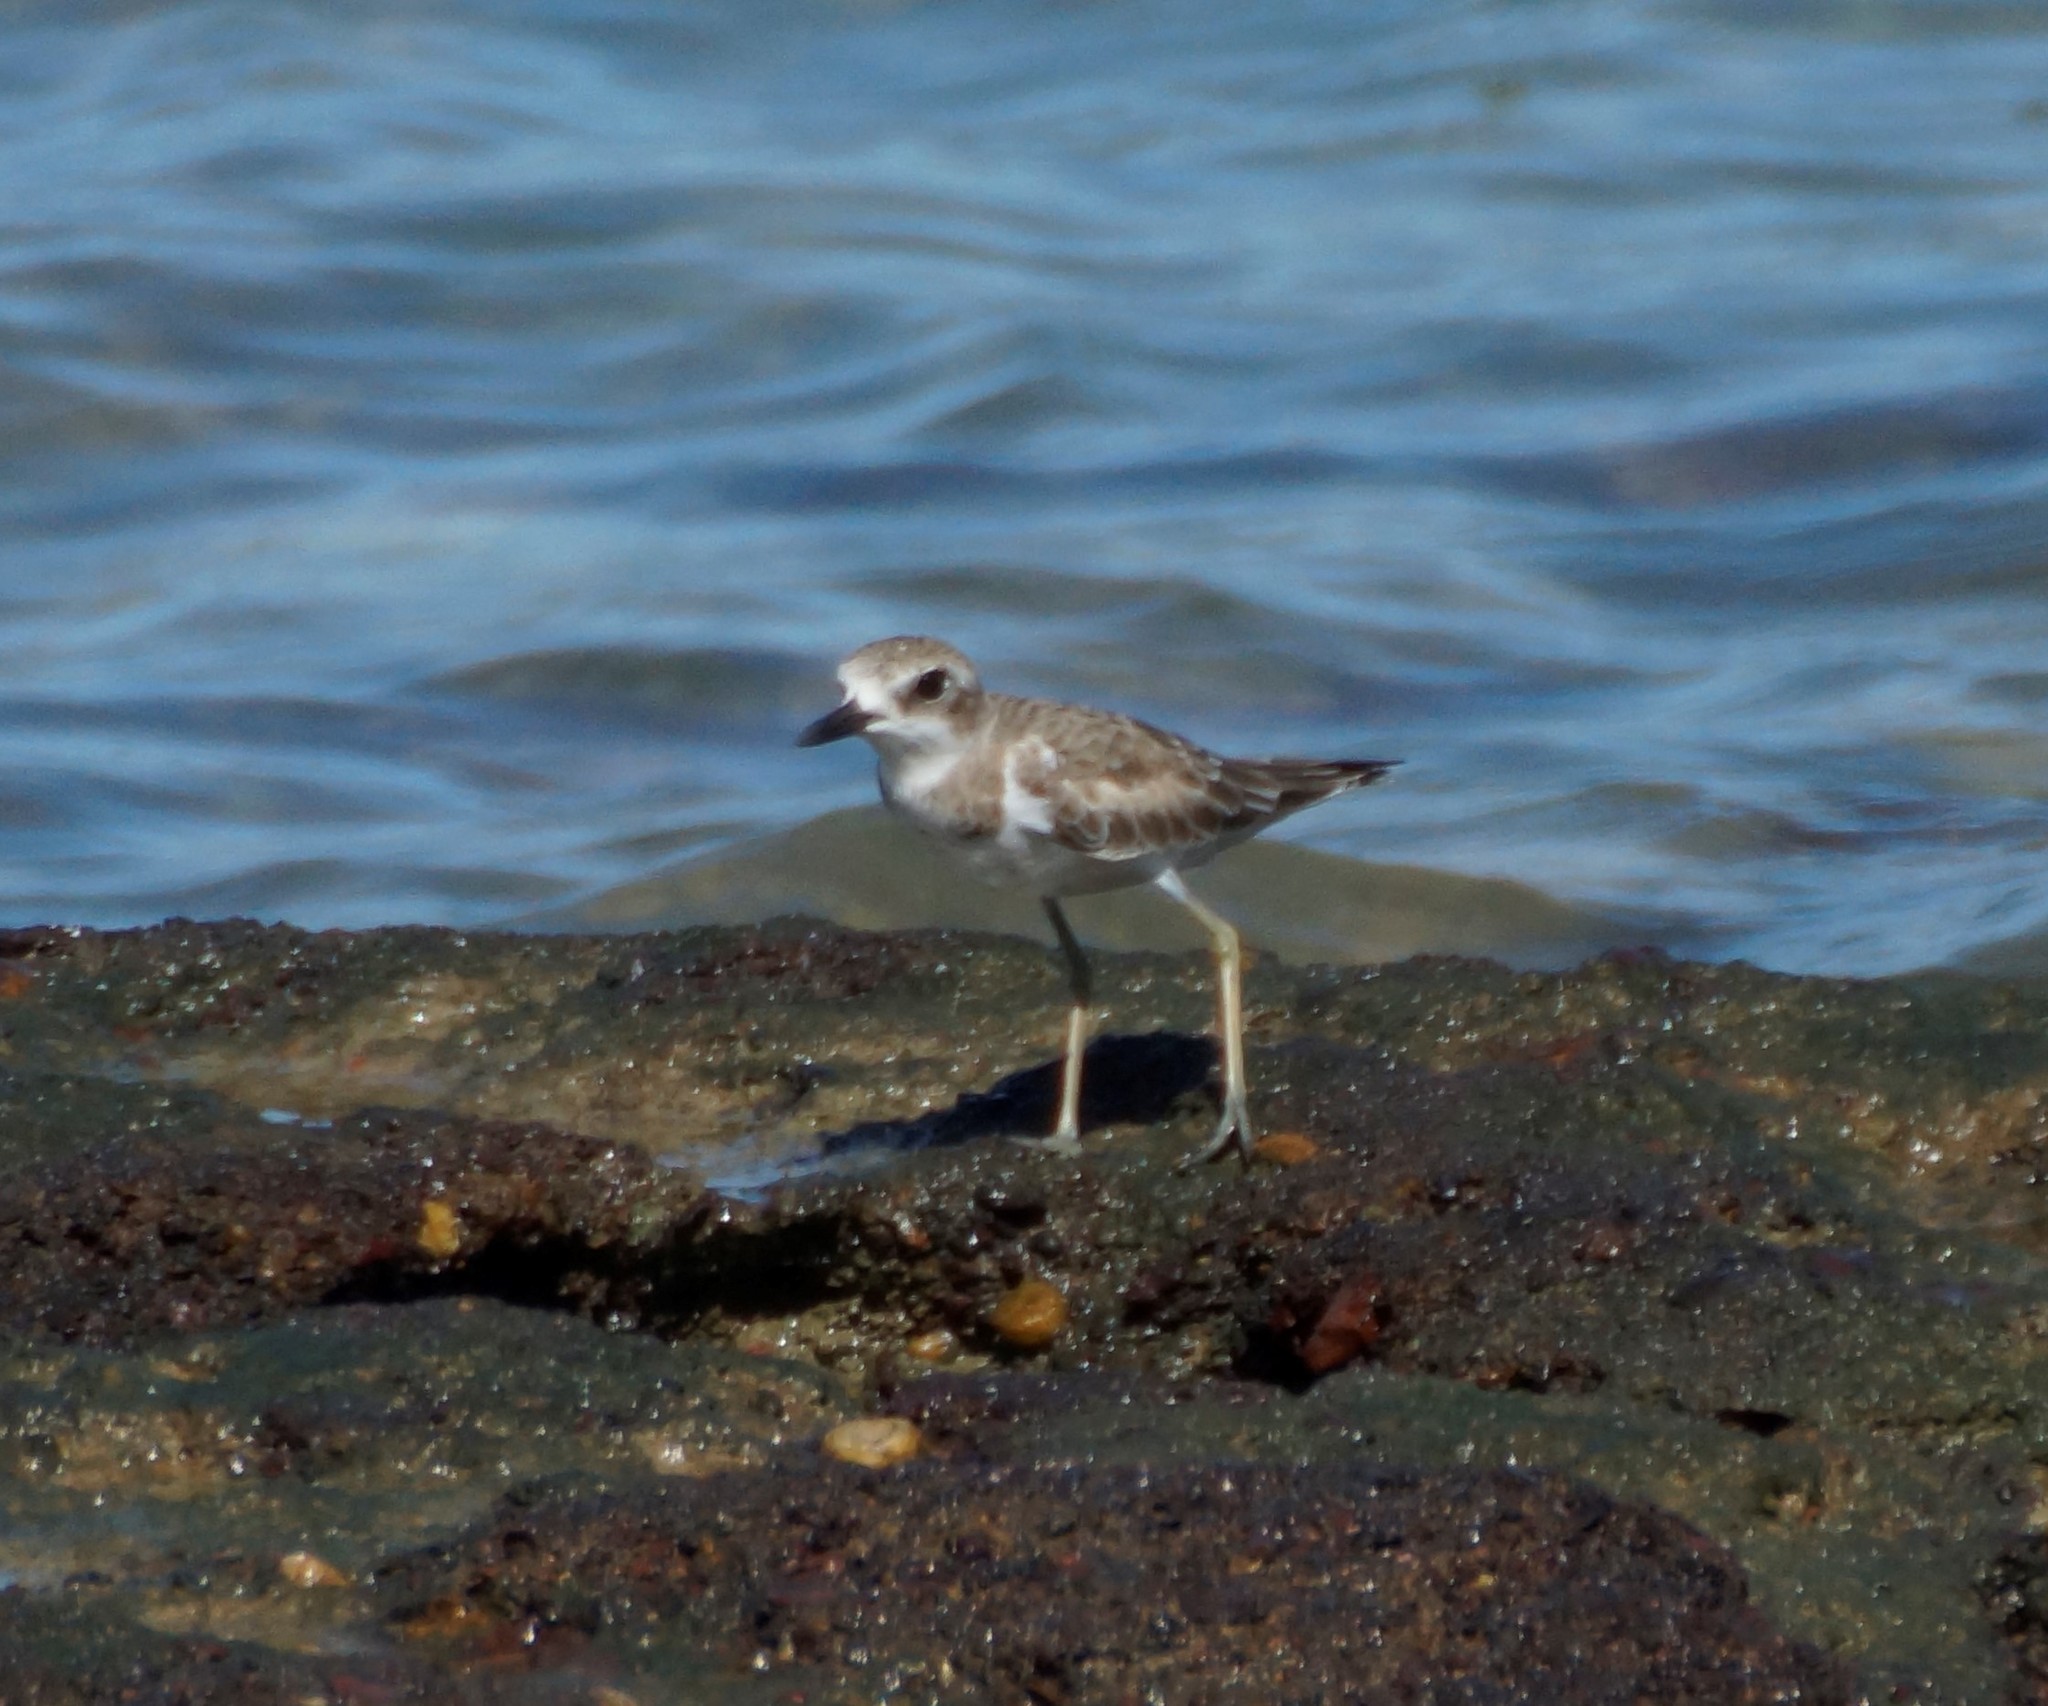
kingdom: Animalia
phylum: Chordata
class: Aves
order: Charadriiformes
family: Charadriidae
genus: Charadrius
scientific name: Charadrius leschenaultii
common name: Greater sand plover
